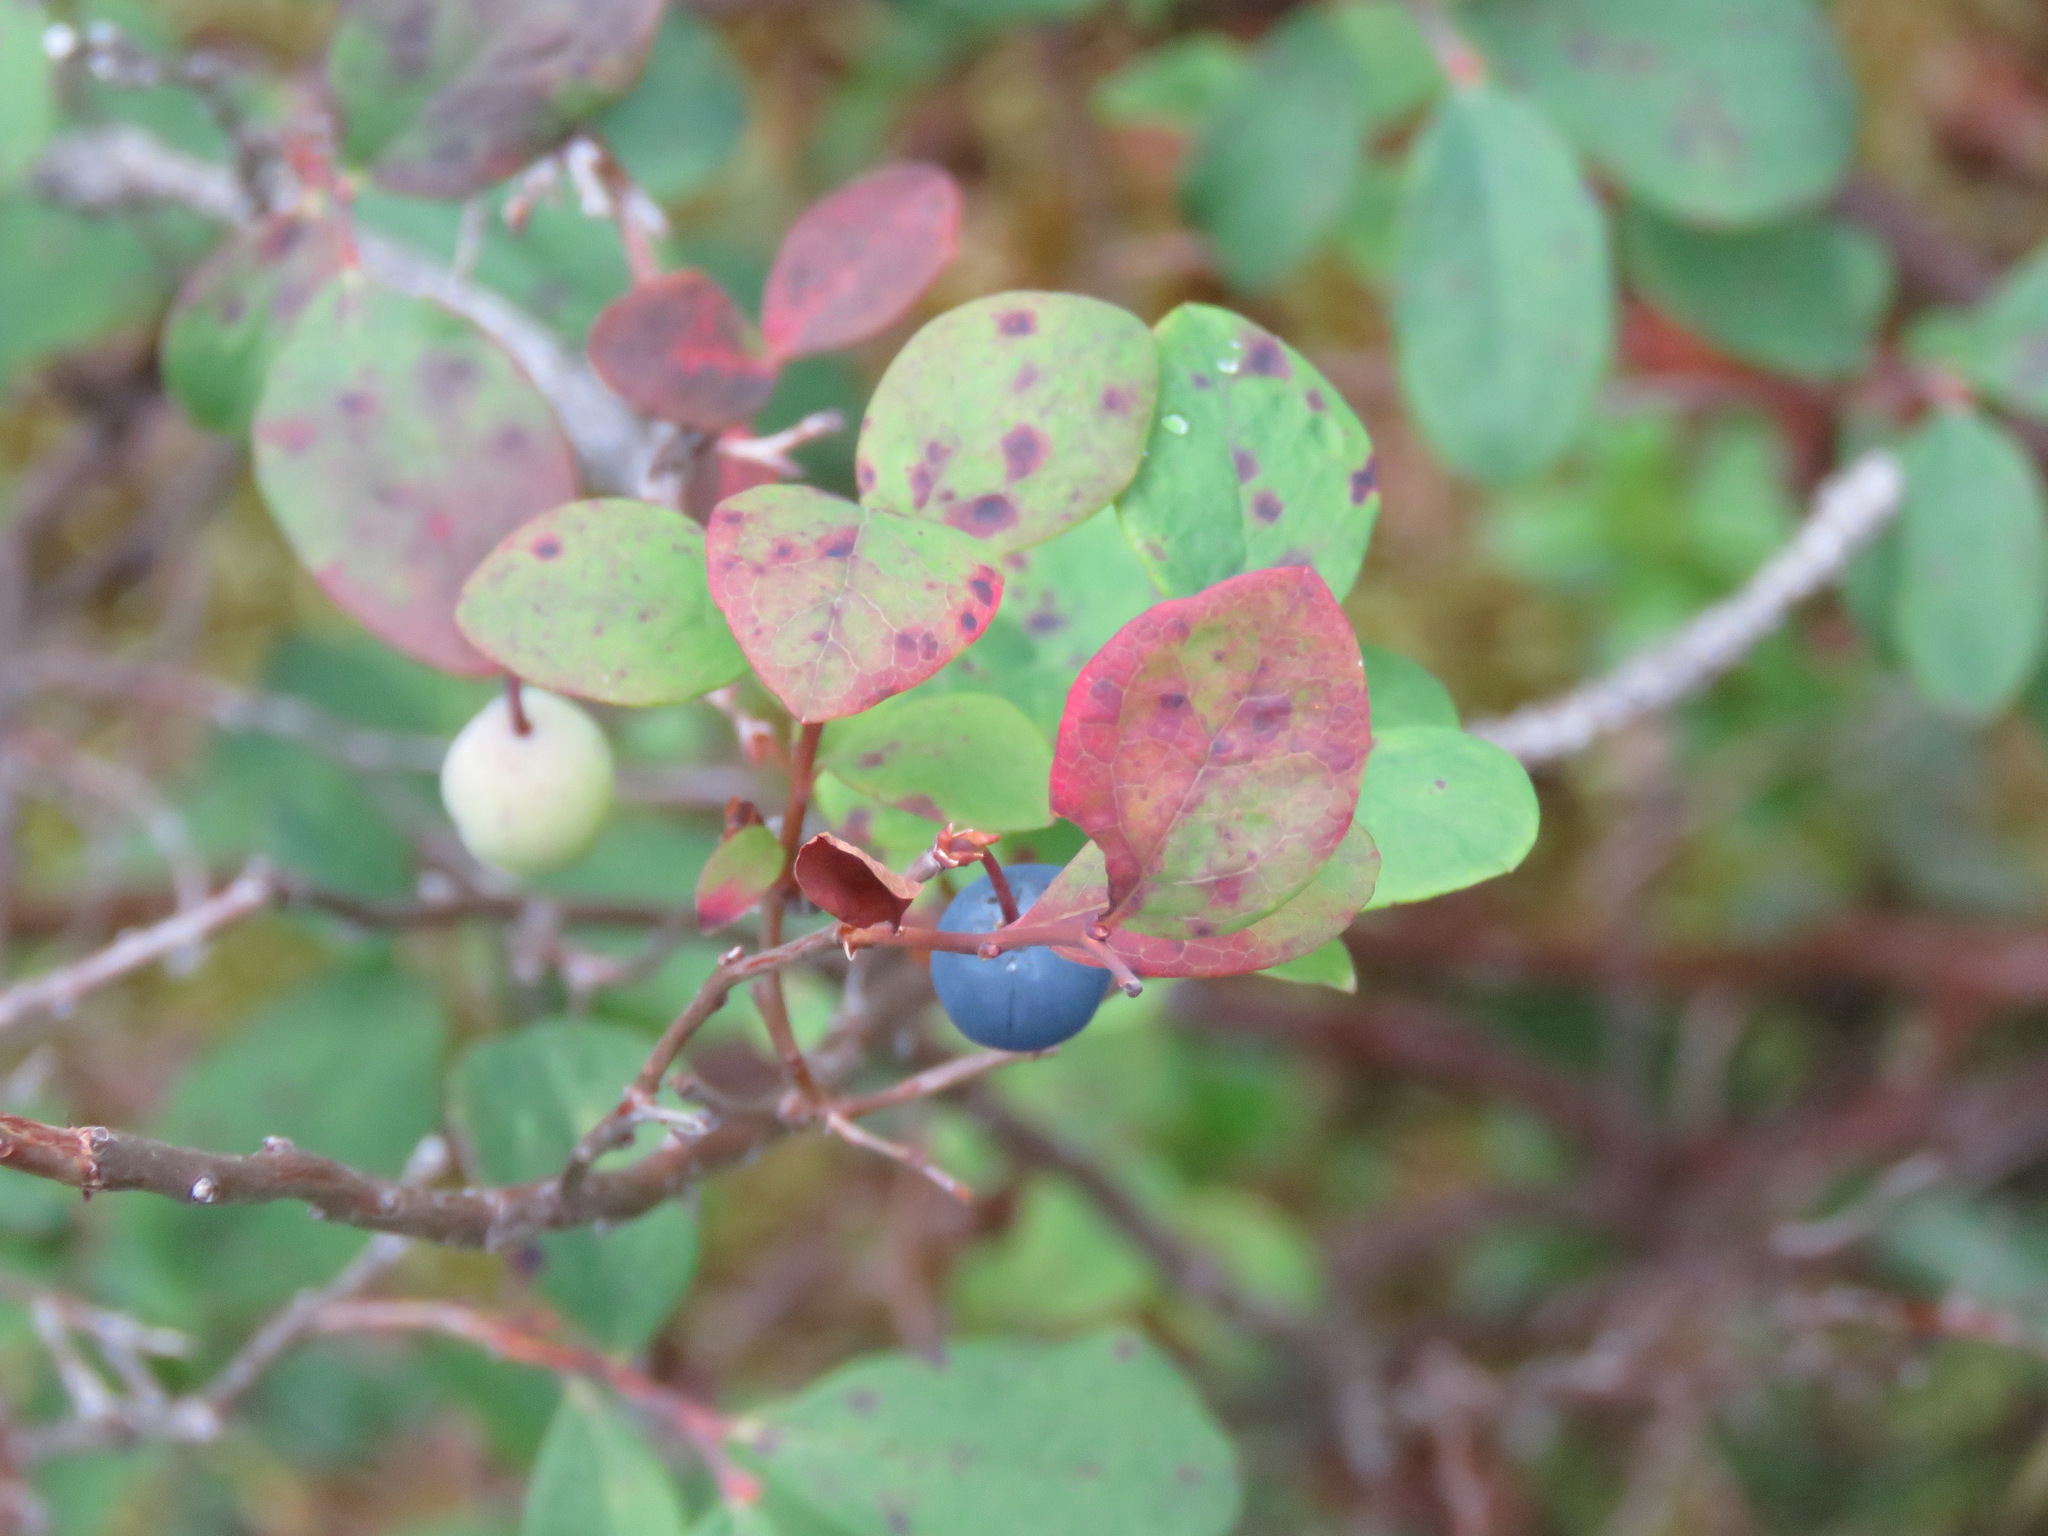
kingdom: Plantae
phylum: Tracheophyta
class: Magnoliopsida
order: Ericales
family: Ericaceae
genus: Vaccinium
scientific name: Vaccinium uliginosum
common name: Bog bilberry
